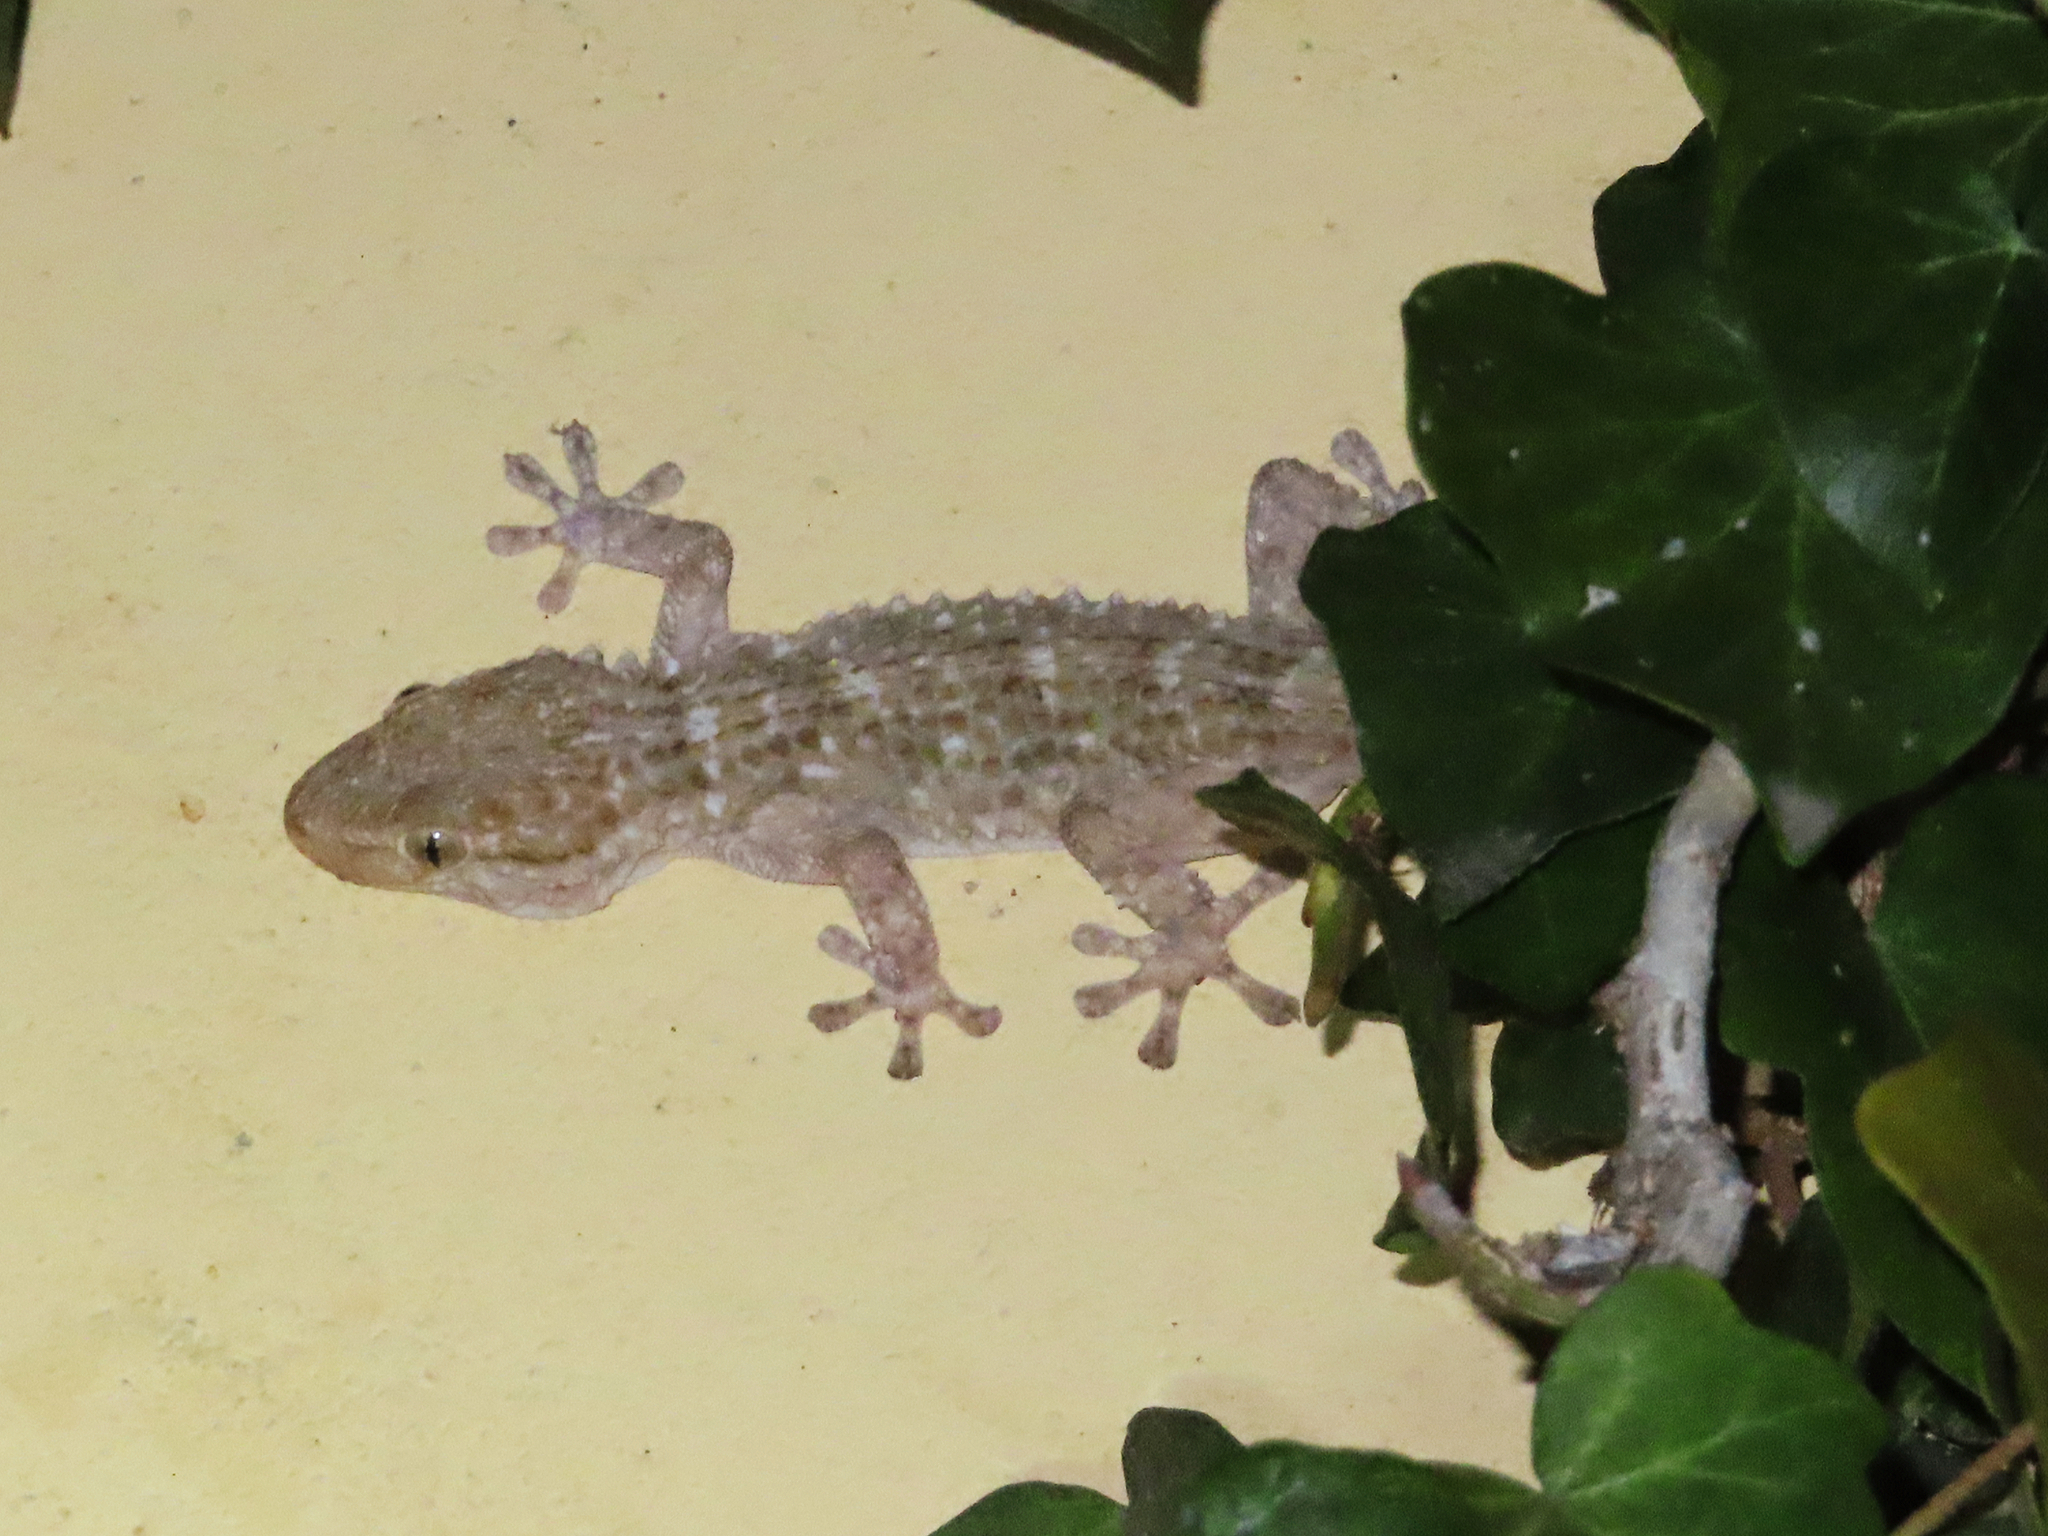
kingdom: Animalia
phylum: Chordata
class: Squamata
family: Phyllodactylidae
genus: Tarentola
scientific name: Tarentola mauritanica
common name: Moorish gecko
